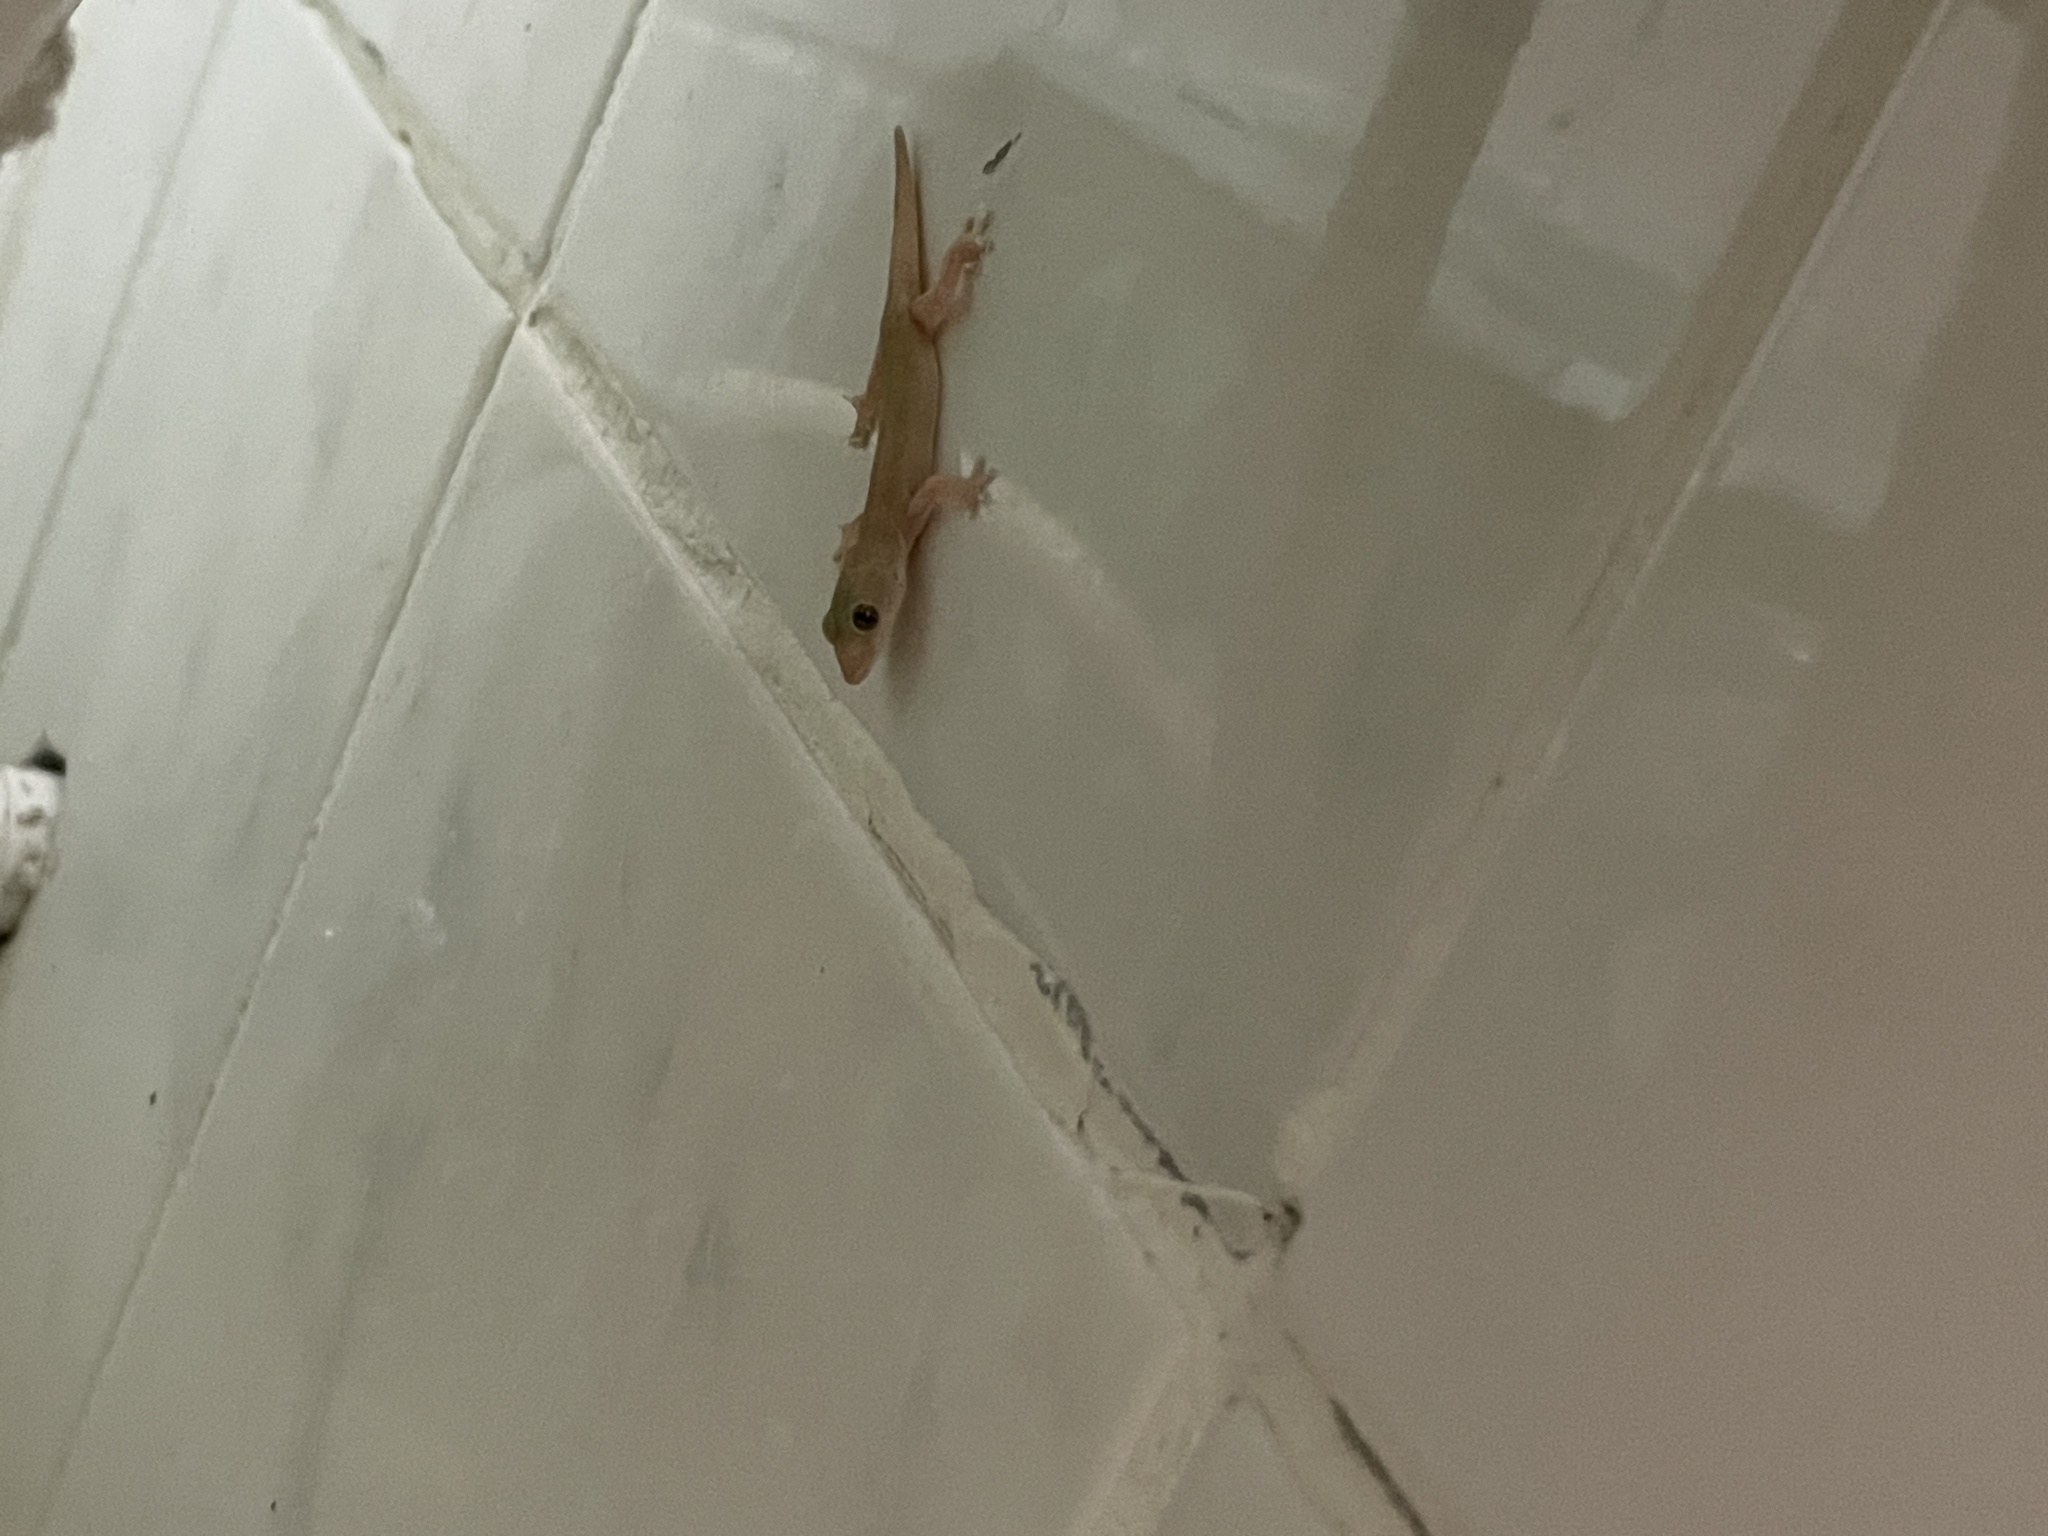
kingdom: Animalia
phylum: Chordata
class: Squamata
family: Gekkonidae
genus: Hemidactylus
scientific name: Hemidactylus frenatus
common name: Common house gecko
